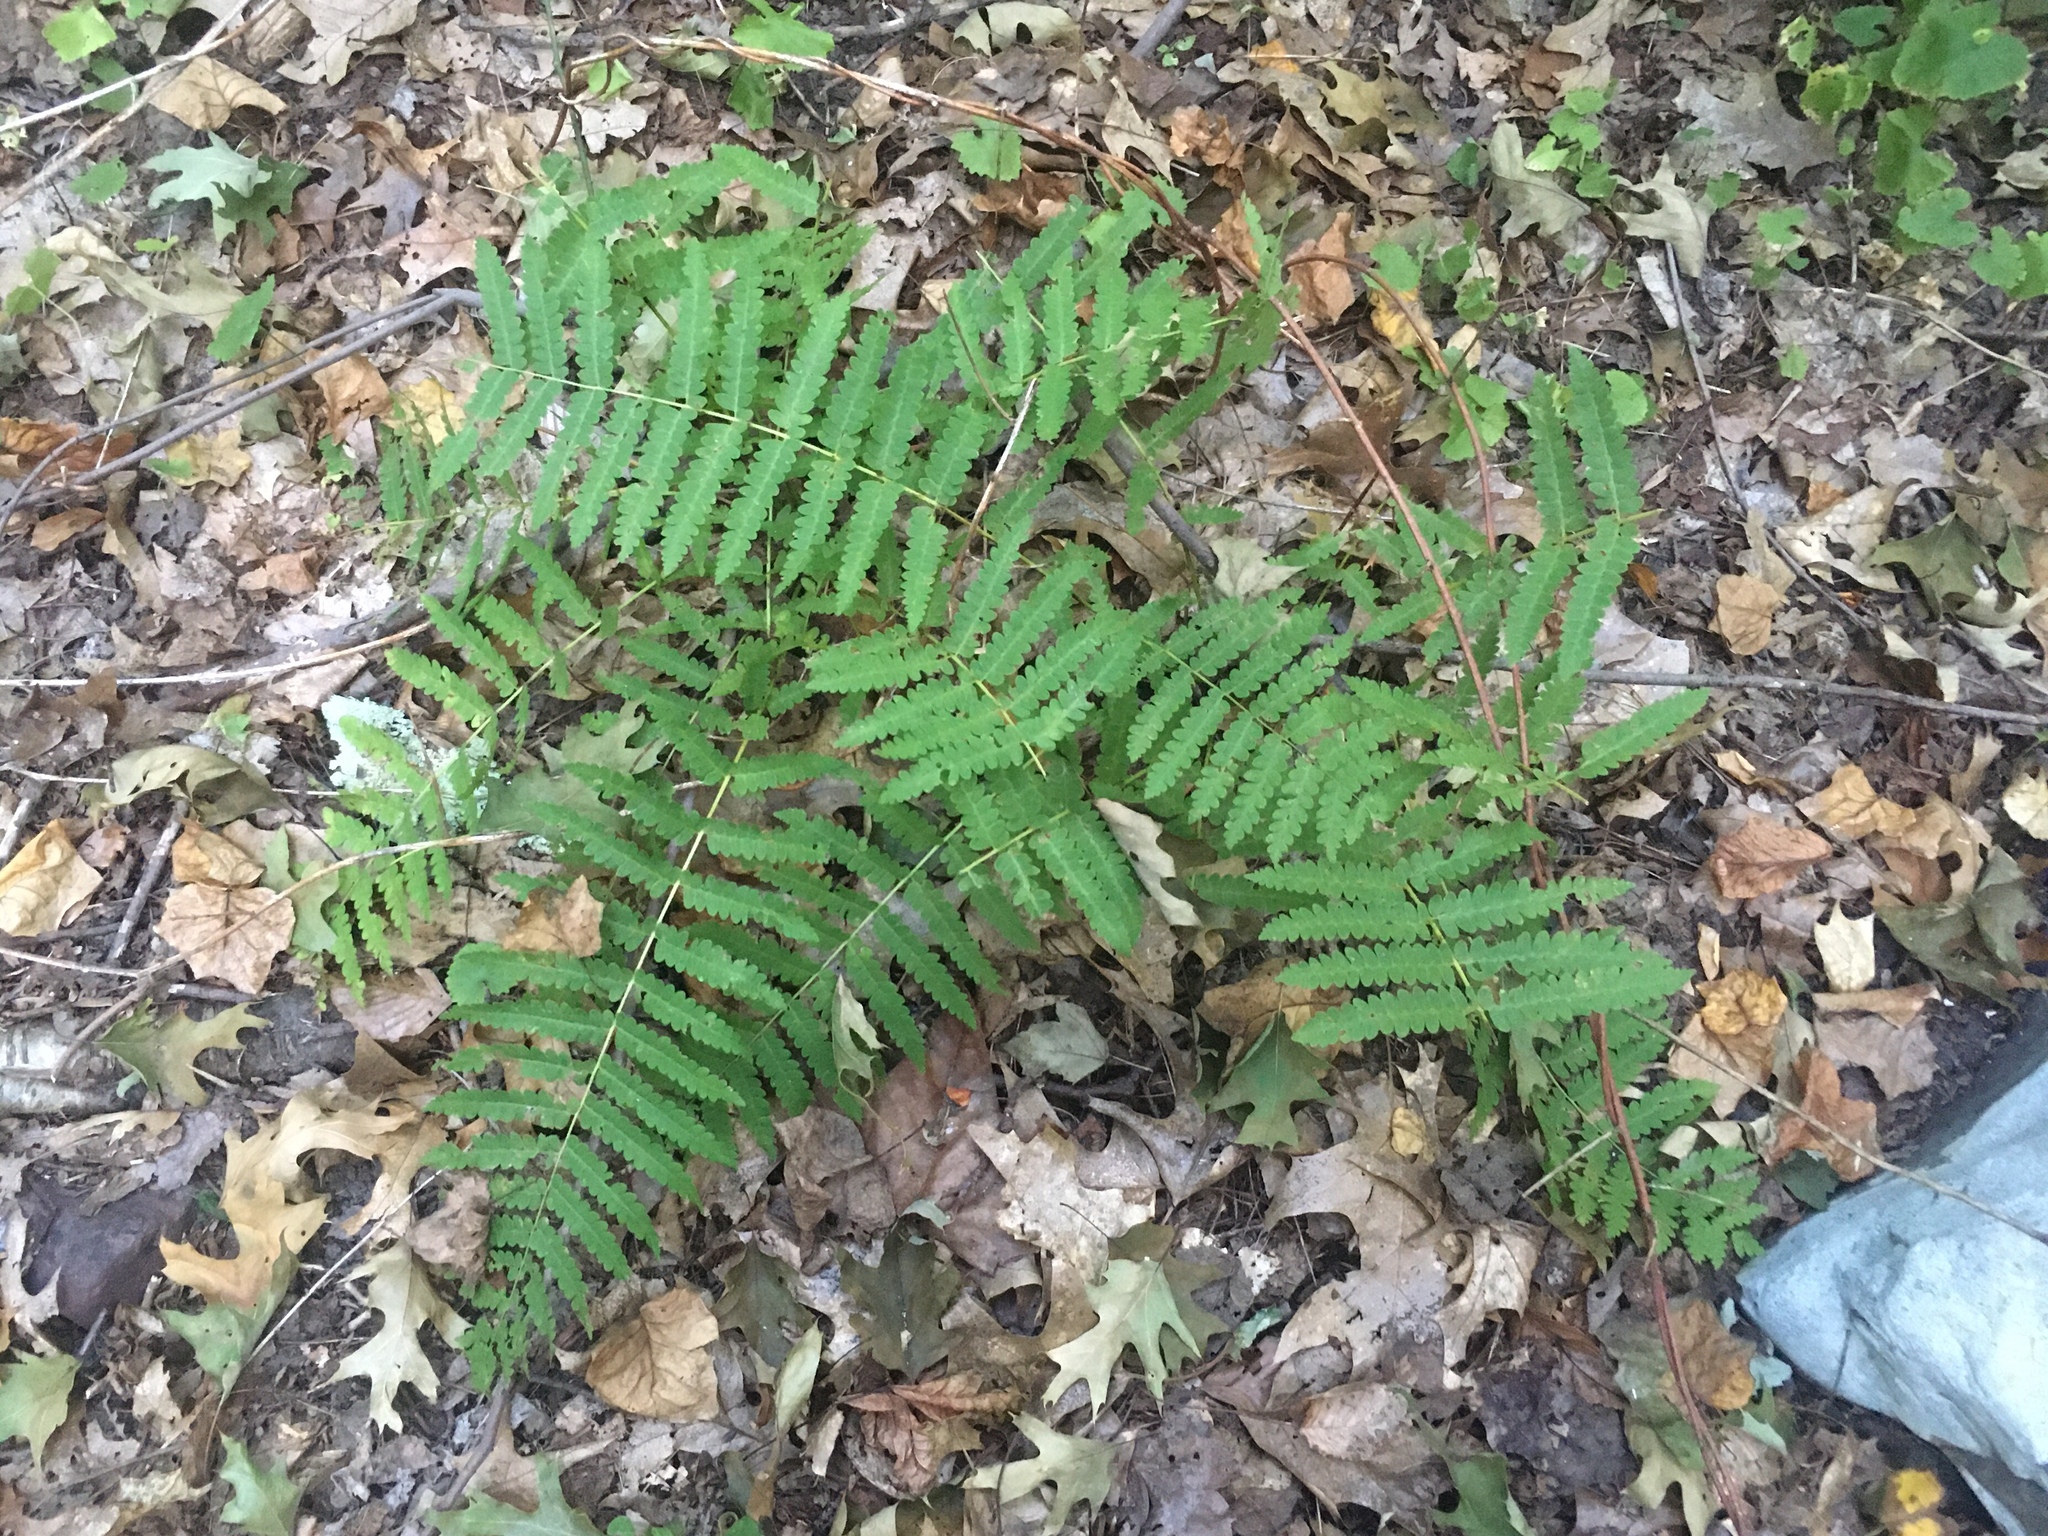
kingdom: Plantae
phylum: Tracheophyta
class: Polypodiopsida
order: Osmundales
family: Osmundaceae
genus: Claytosmunda
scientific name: Claytosmunda claytoniana
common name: Clayton's fern
